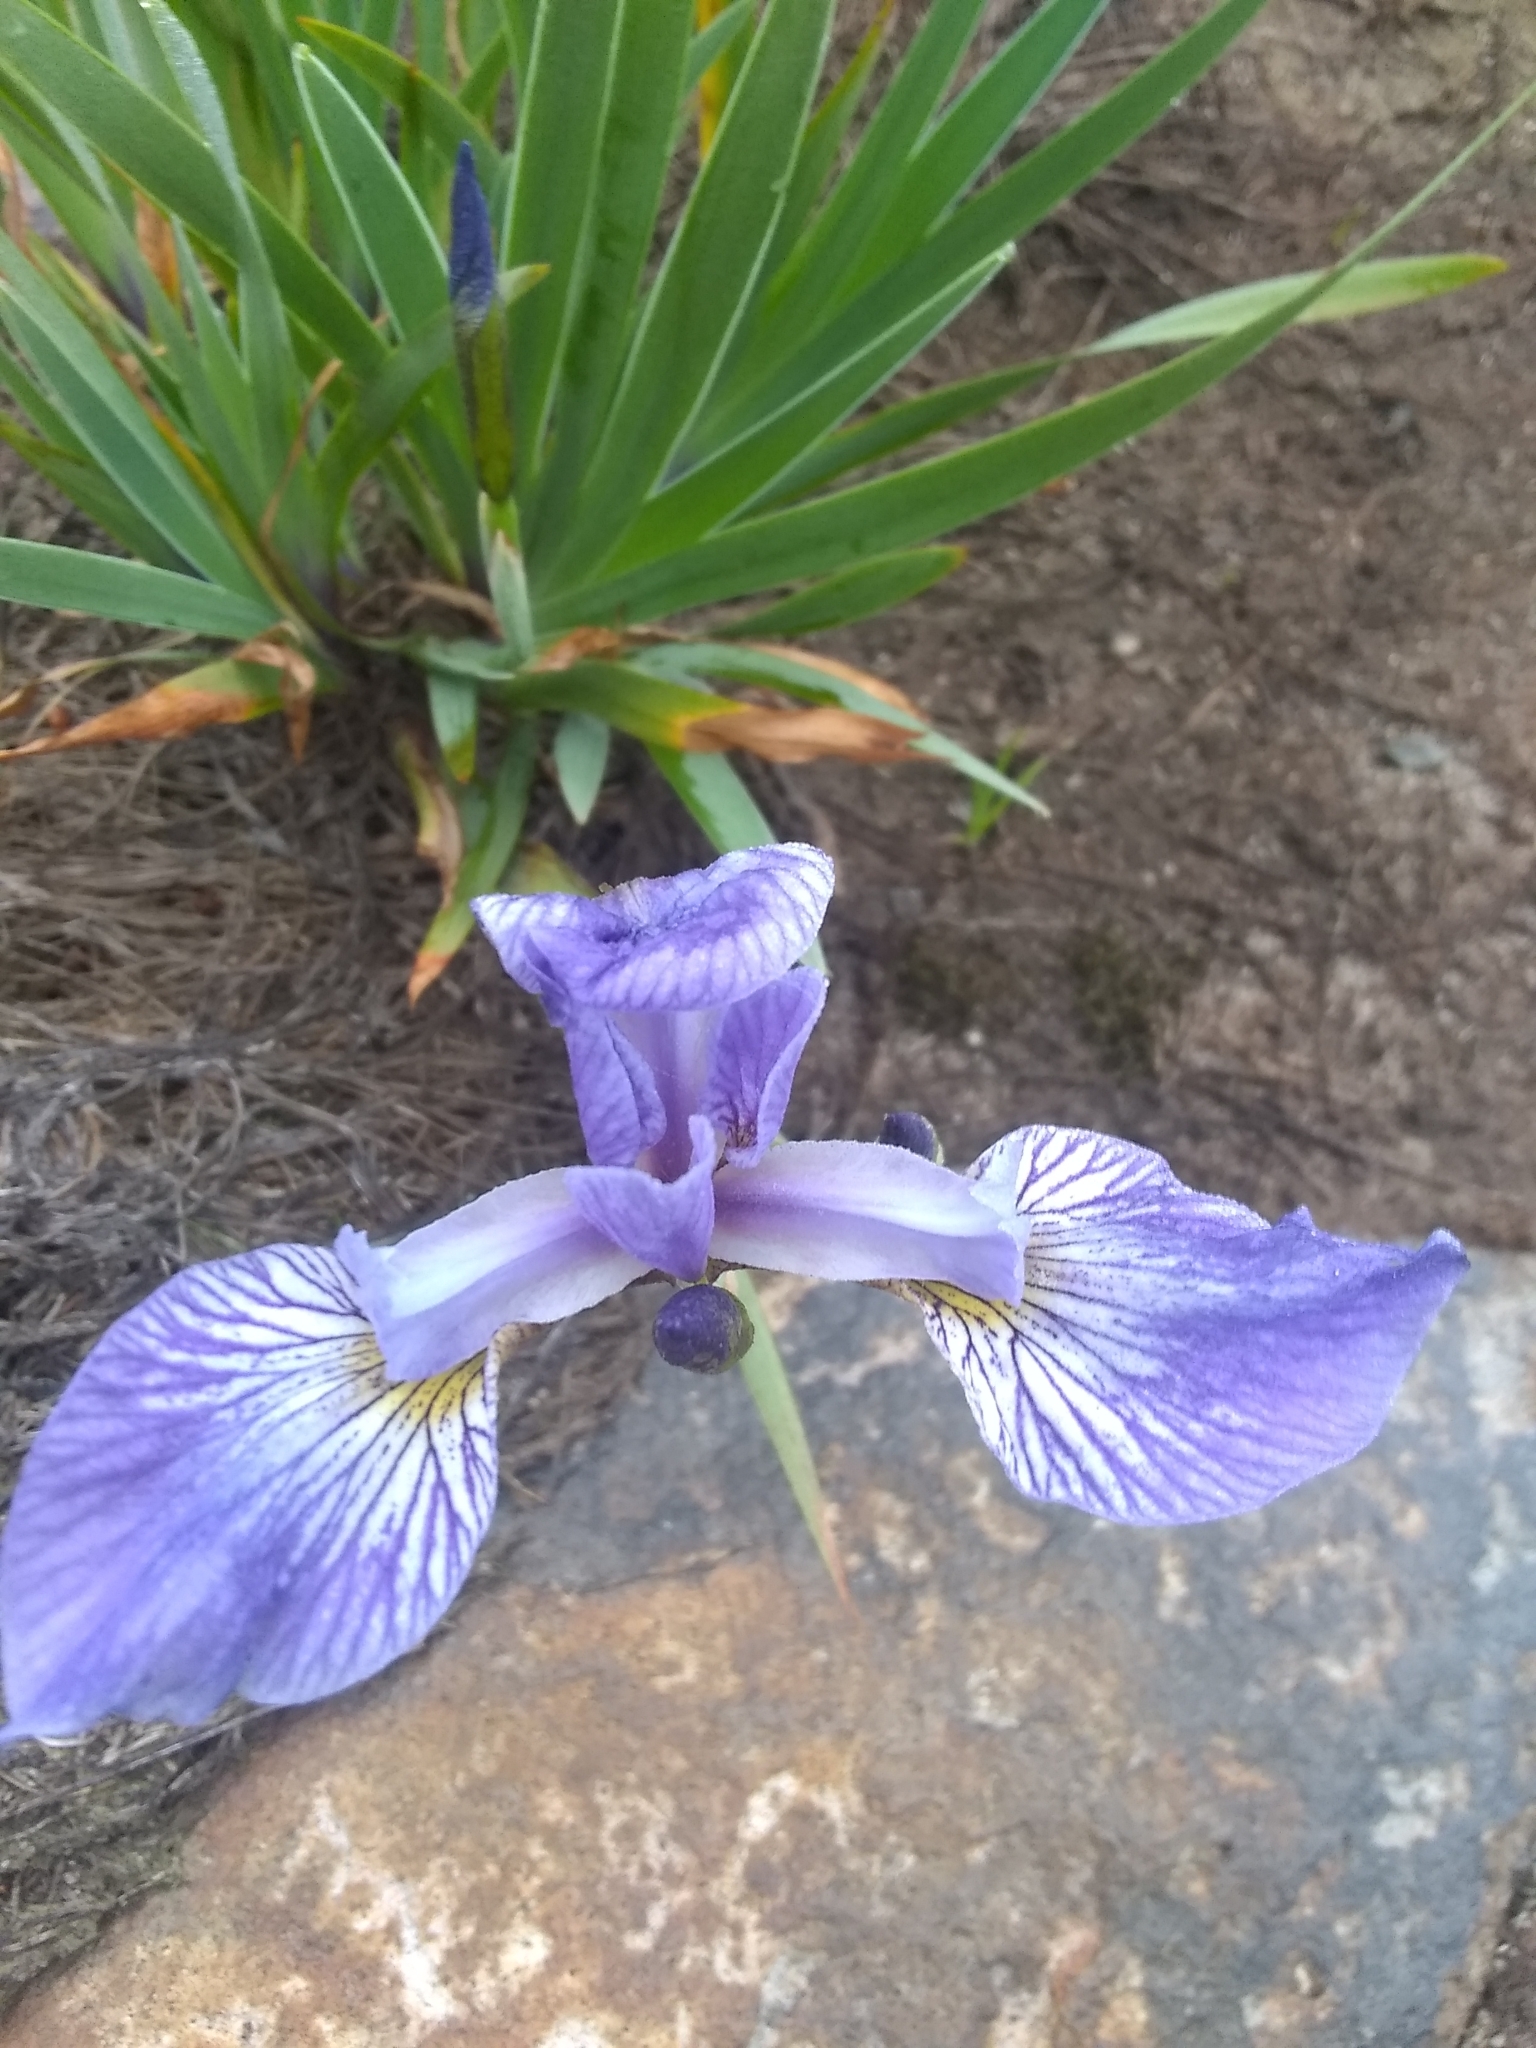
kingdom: Plantae
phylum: Tracheophyta
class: Liliopsida
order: Asparagales
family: Iridaceae
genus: Iris
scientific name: Iris versicolor
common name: Purple iris
